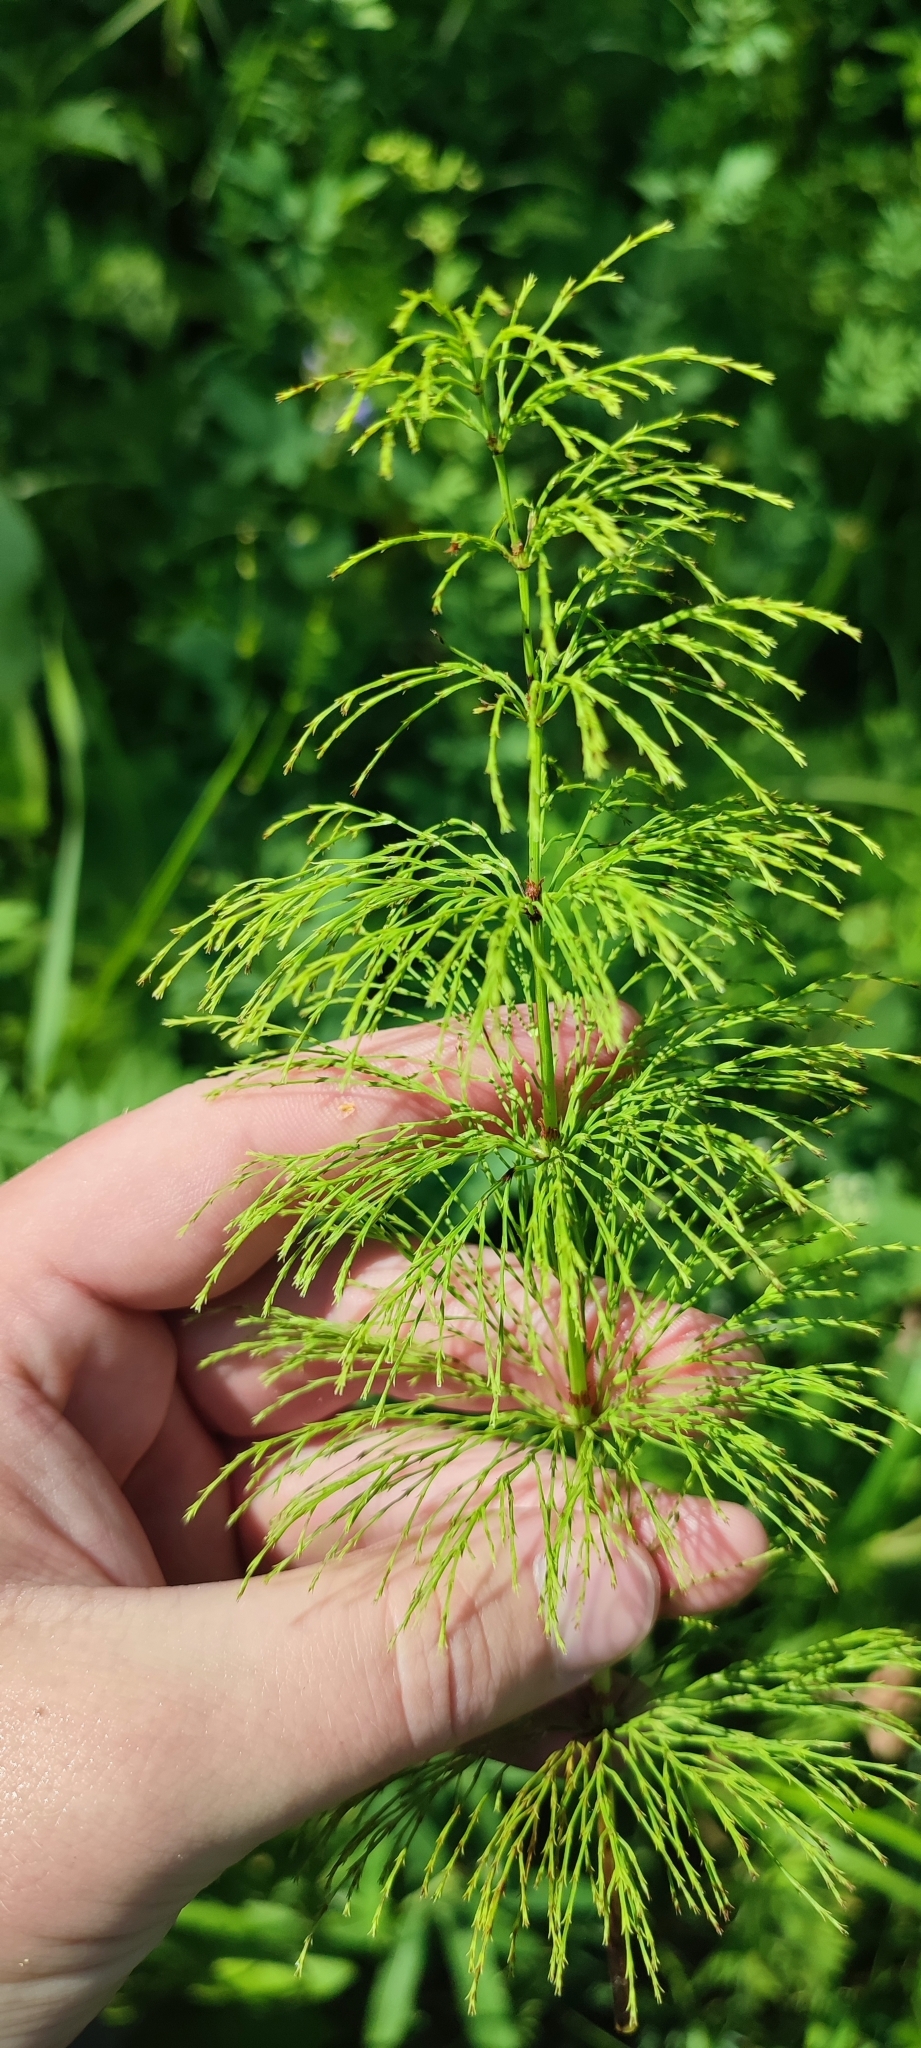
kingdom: Plantae
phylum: Tracheophyta
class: Polypodiopsida
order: Equisetales
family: Equisetaceae
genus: Equisetum
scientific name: Equisetum sylvaticum
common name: Wood horsetail
